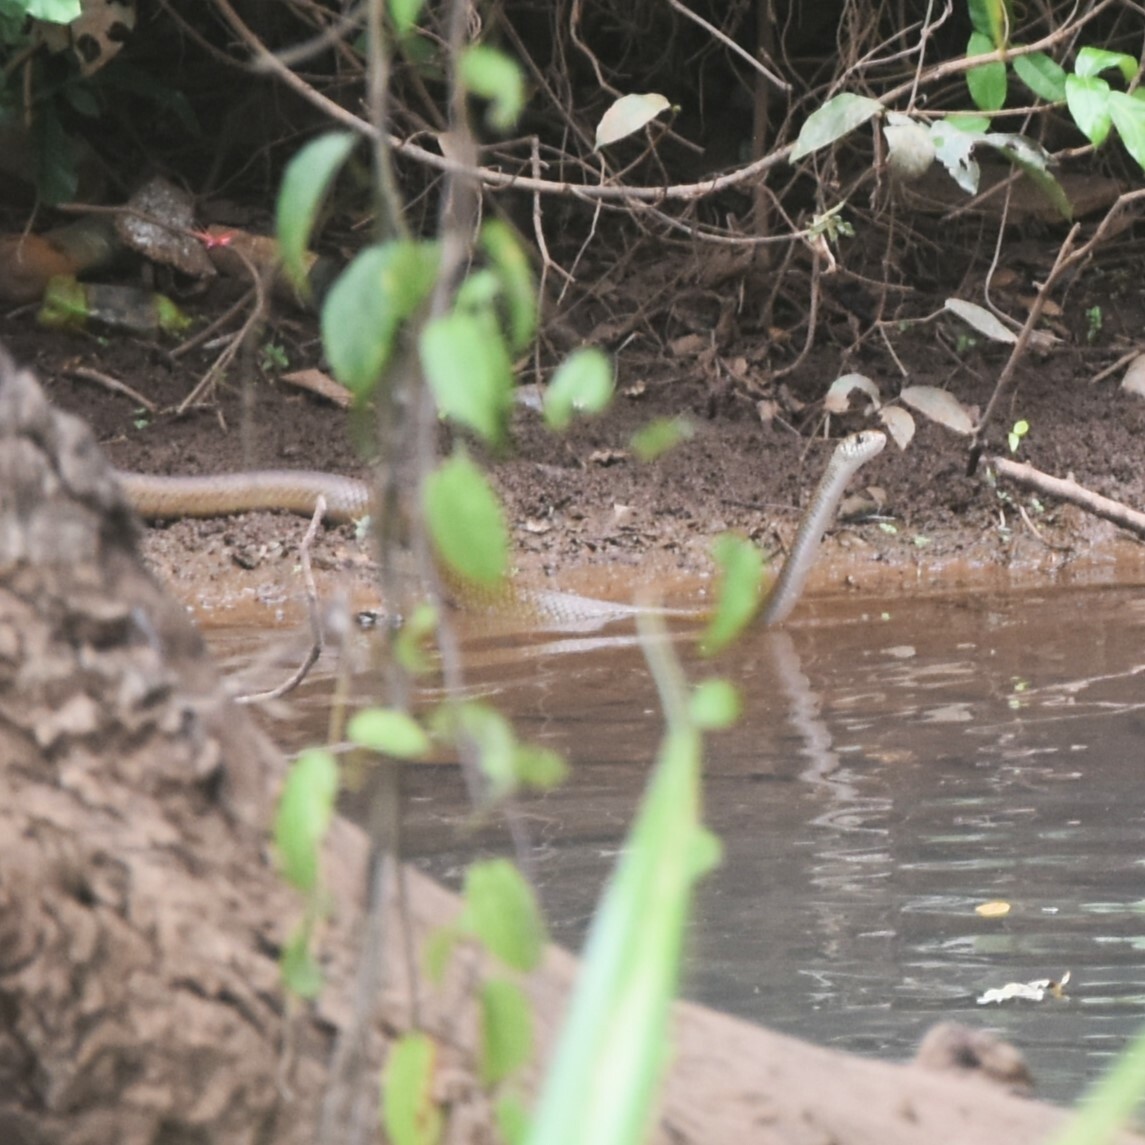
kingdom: Animalia
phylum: Chordata
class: Squamata
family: Colubridae
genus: Ptyas
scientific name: Ptyas mucosa
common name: Oriental ratsnake
